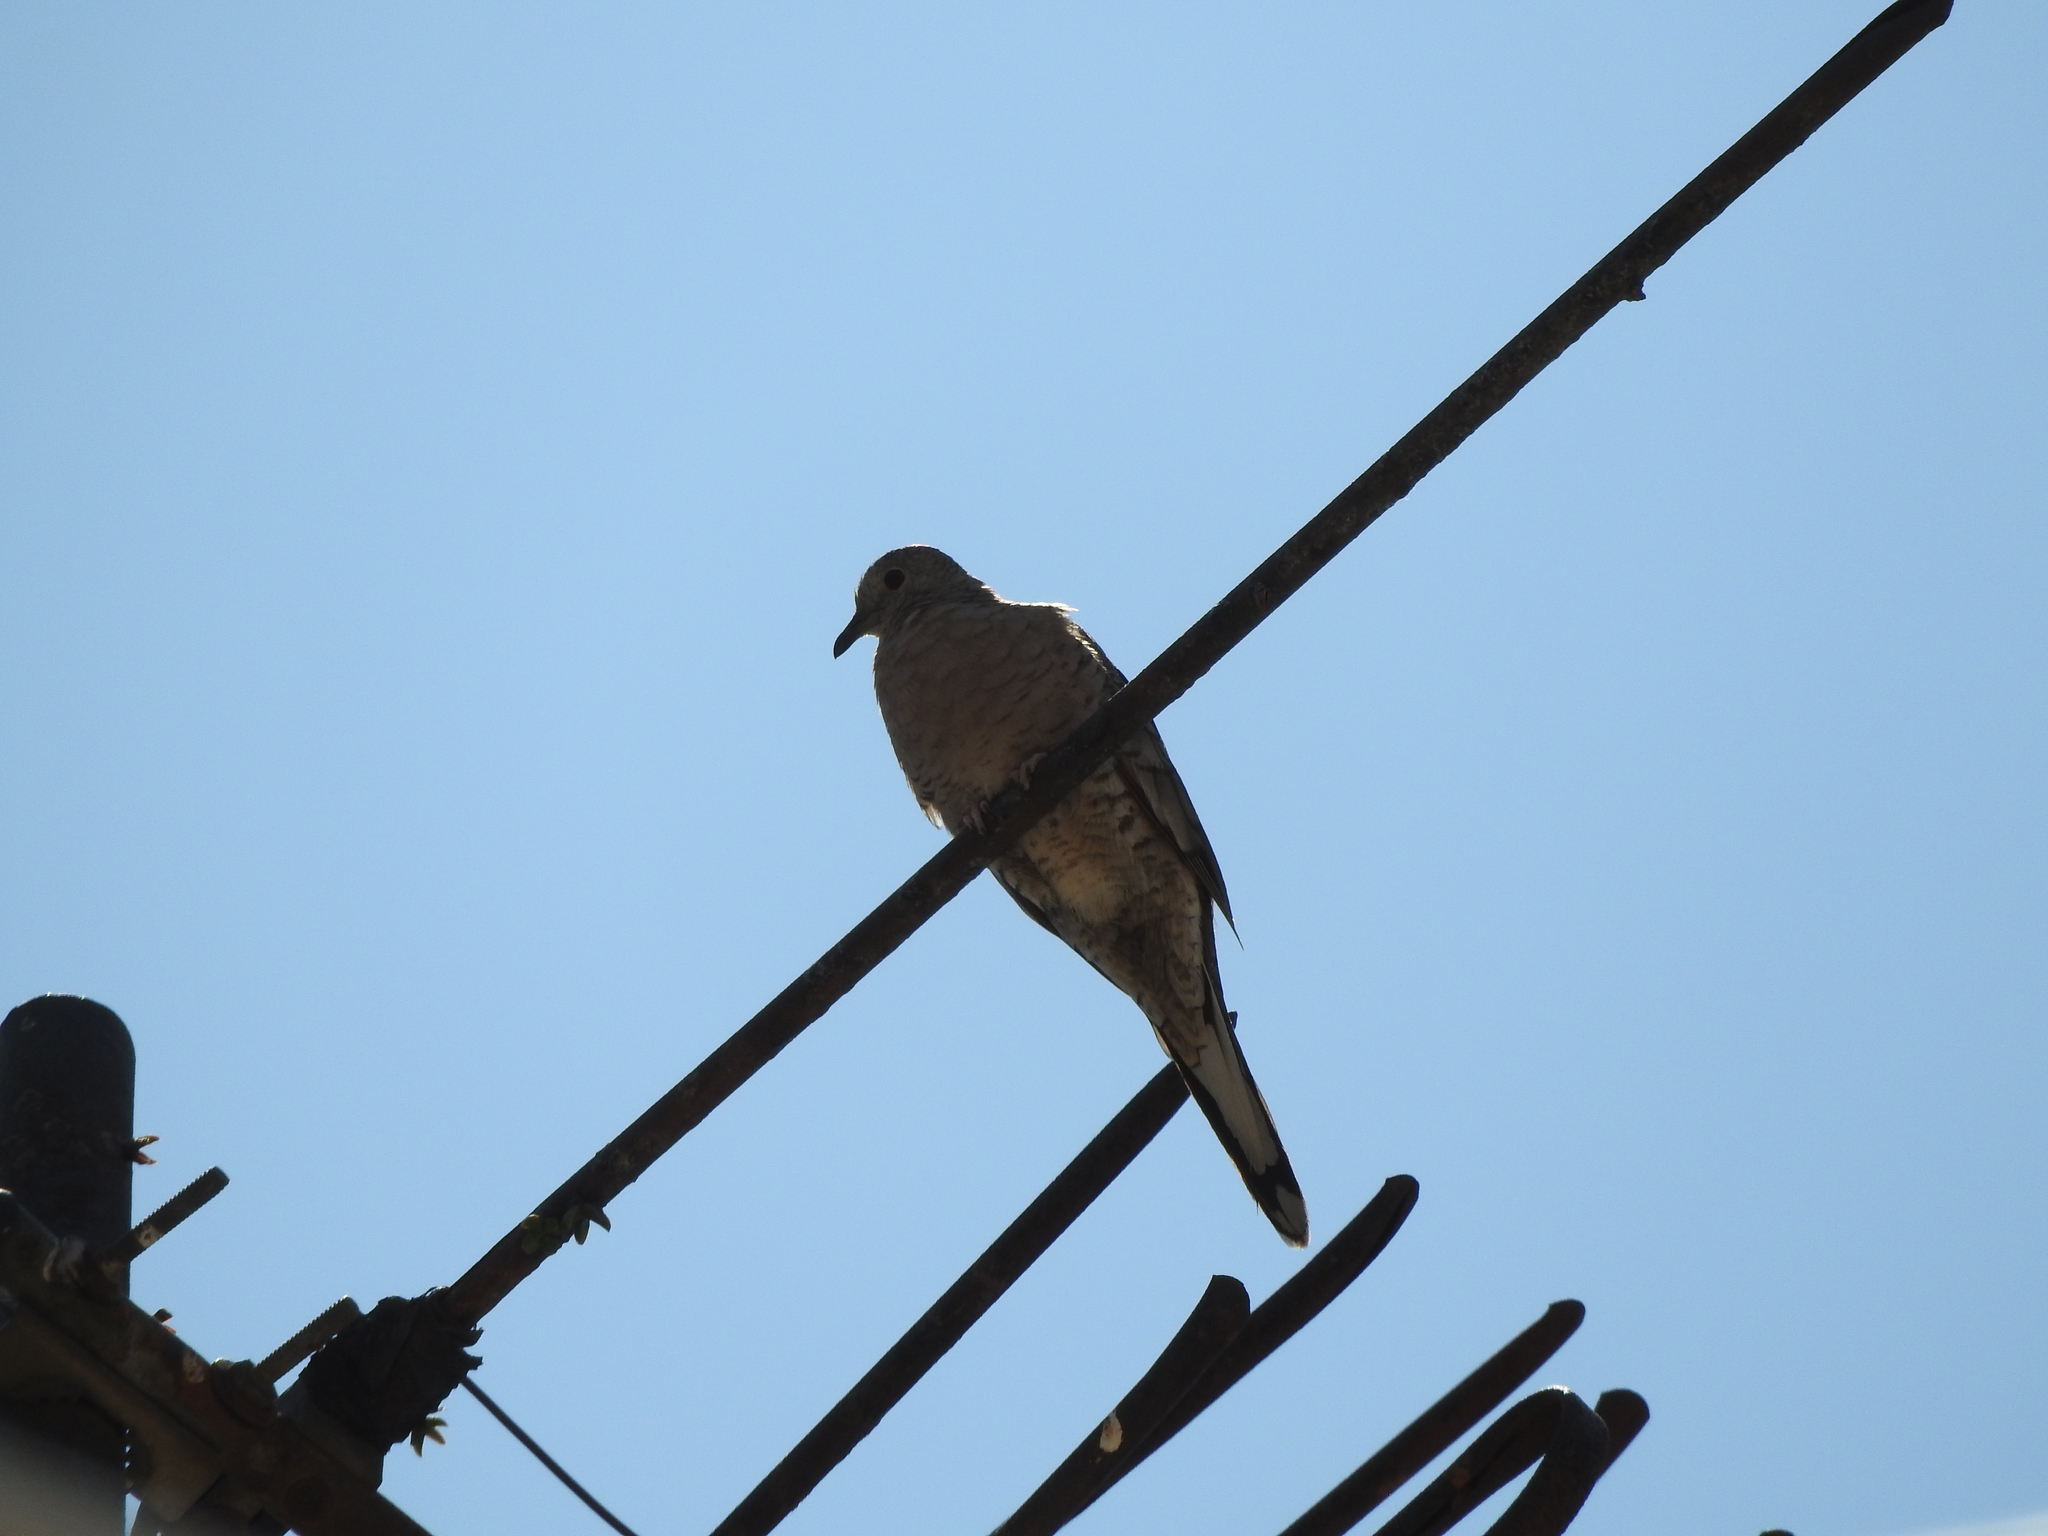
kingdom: Animalia
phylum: Chordata
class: Aves
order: Columbiformes
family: Columbidae
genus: Columbina
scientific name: Columbina inca
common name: Inca dove
